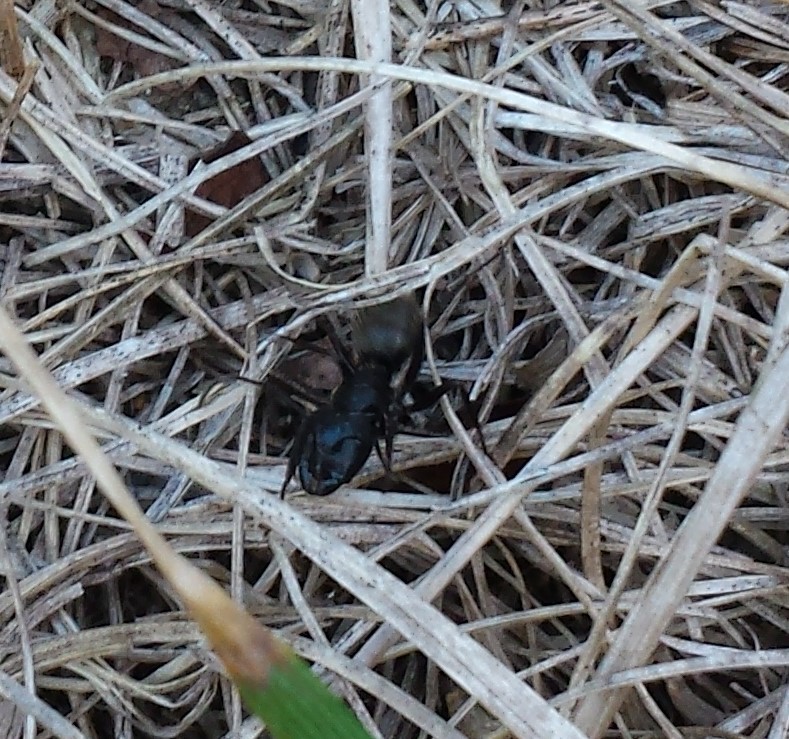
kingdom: Animalia
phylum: Arthropoda
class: Insecta
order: Hymenoptera
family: Formicidae
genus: Camponotus
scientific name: Camponotus pennsylvanicus
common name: Black carpenter ant
